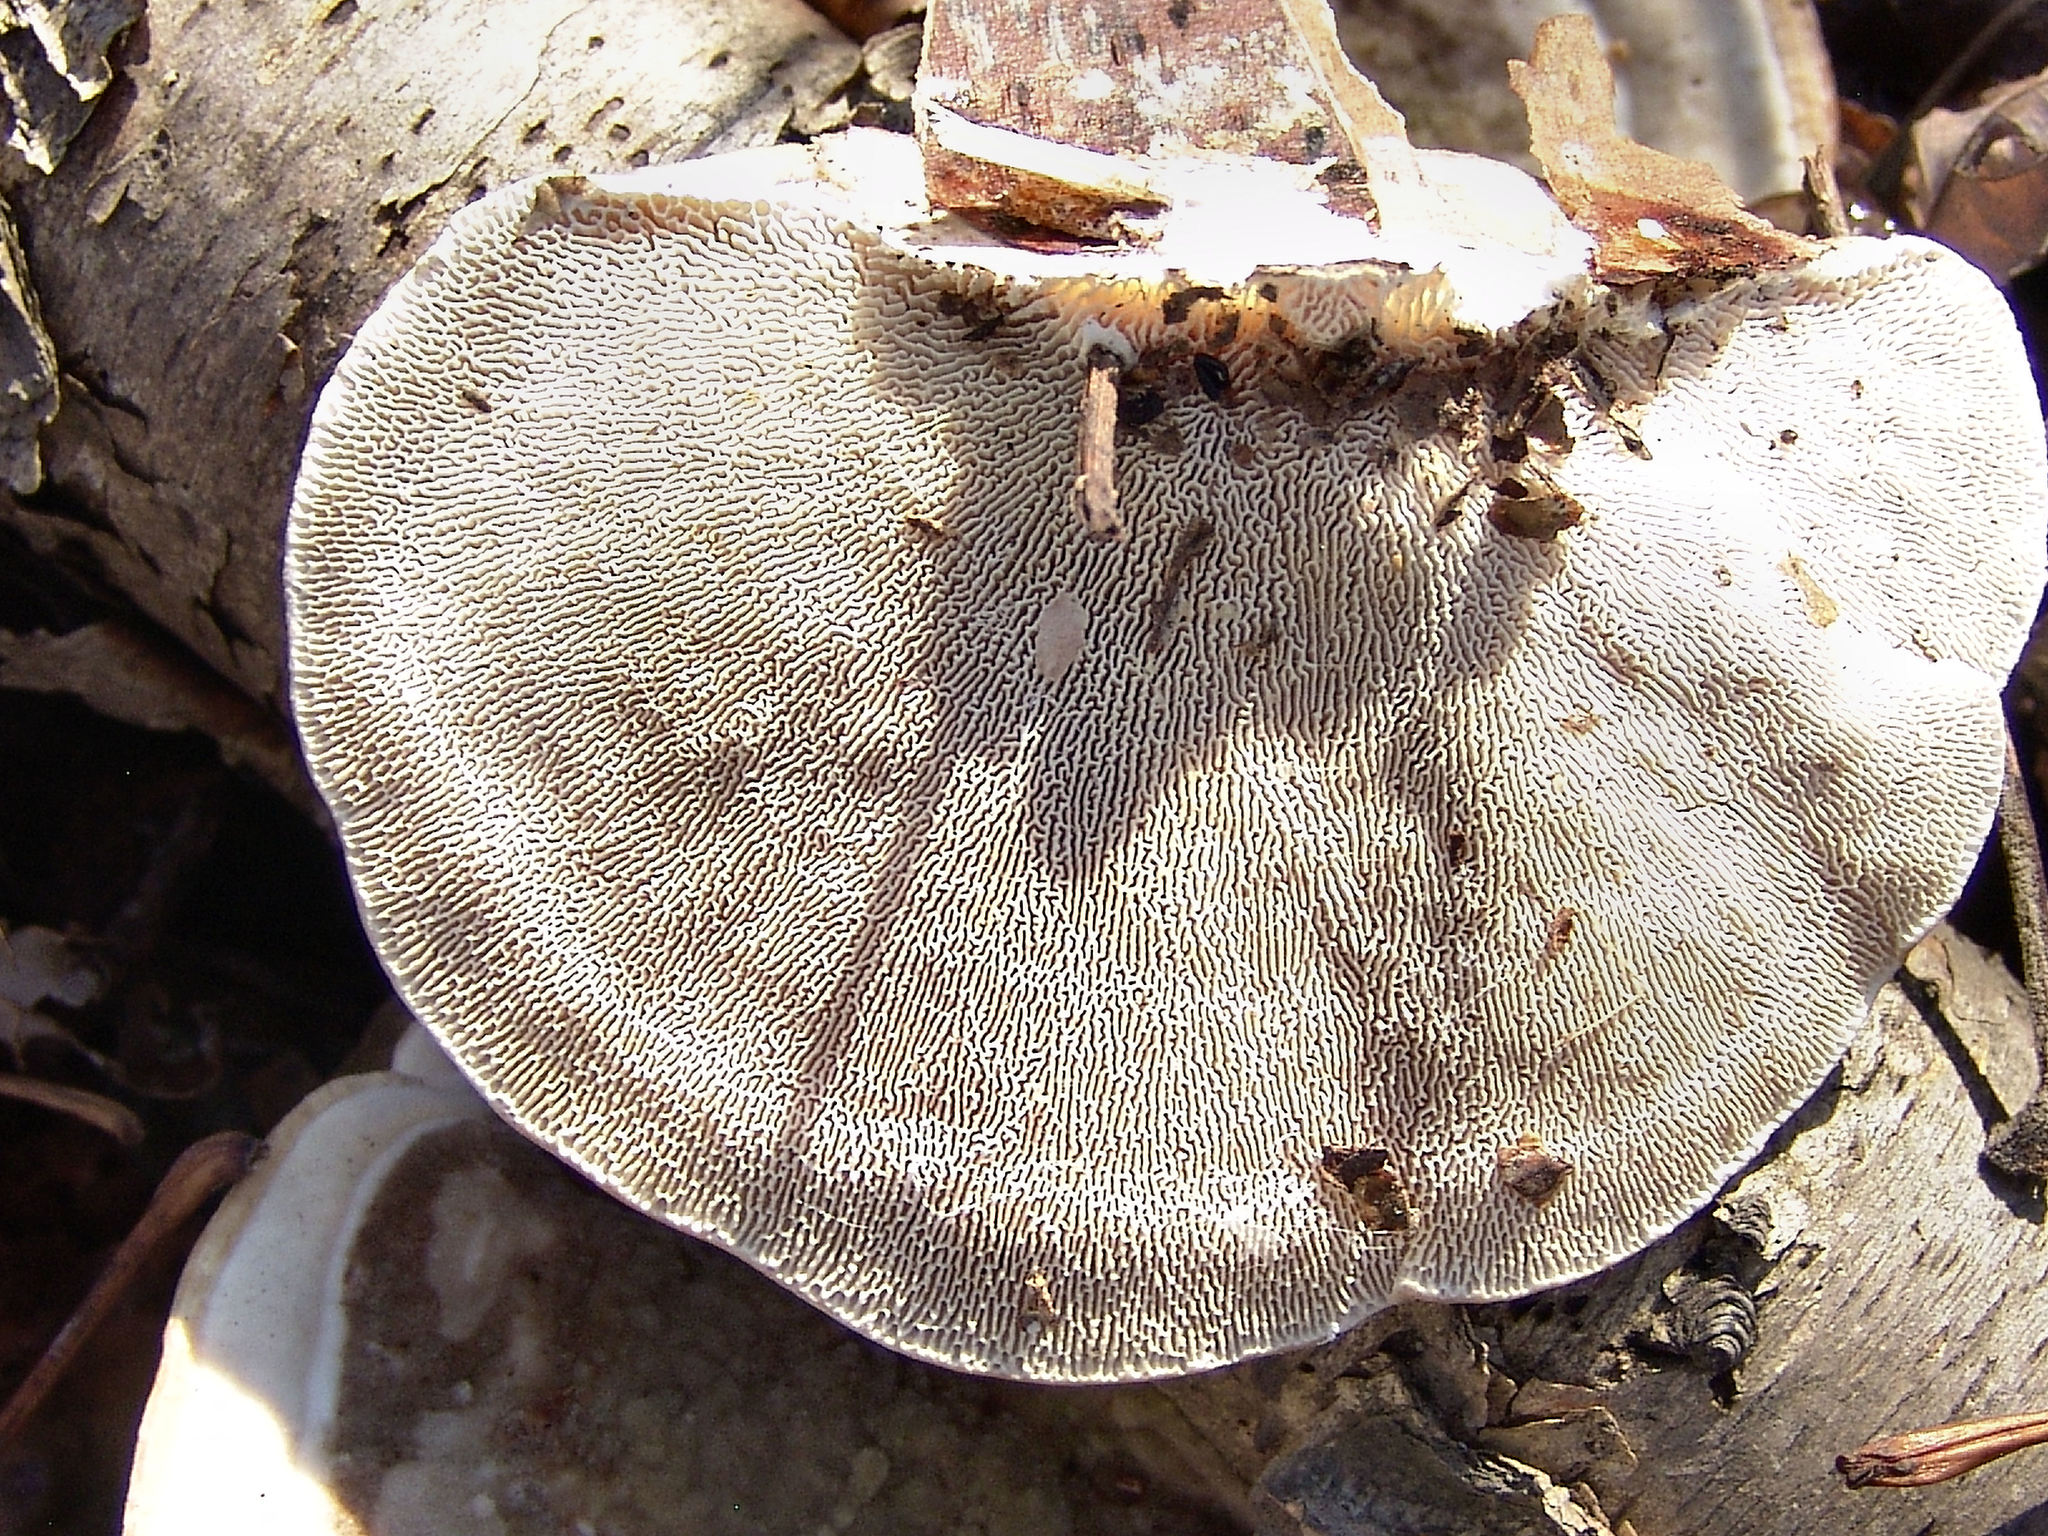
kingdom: Fungi
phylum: Basidiomycota
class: Agaricomycetes
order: Polyporales
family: Polyporaceae
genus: Trametes
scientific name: Trametes gibbosa
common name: Lumpy bracket
